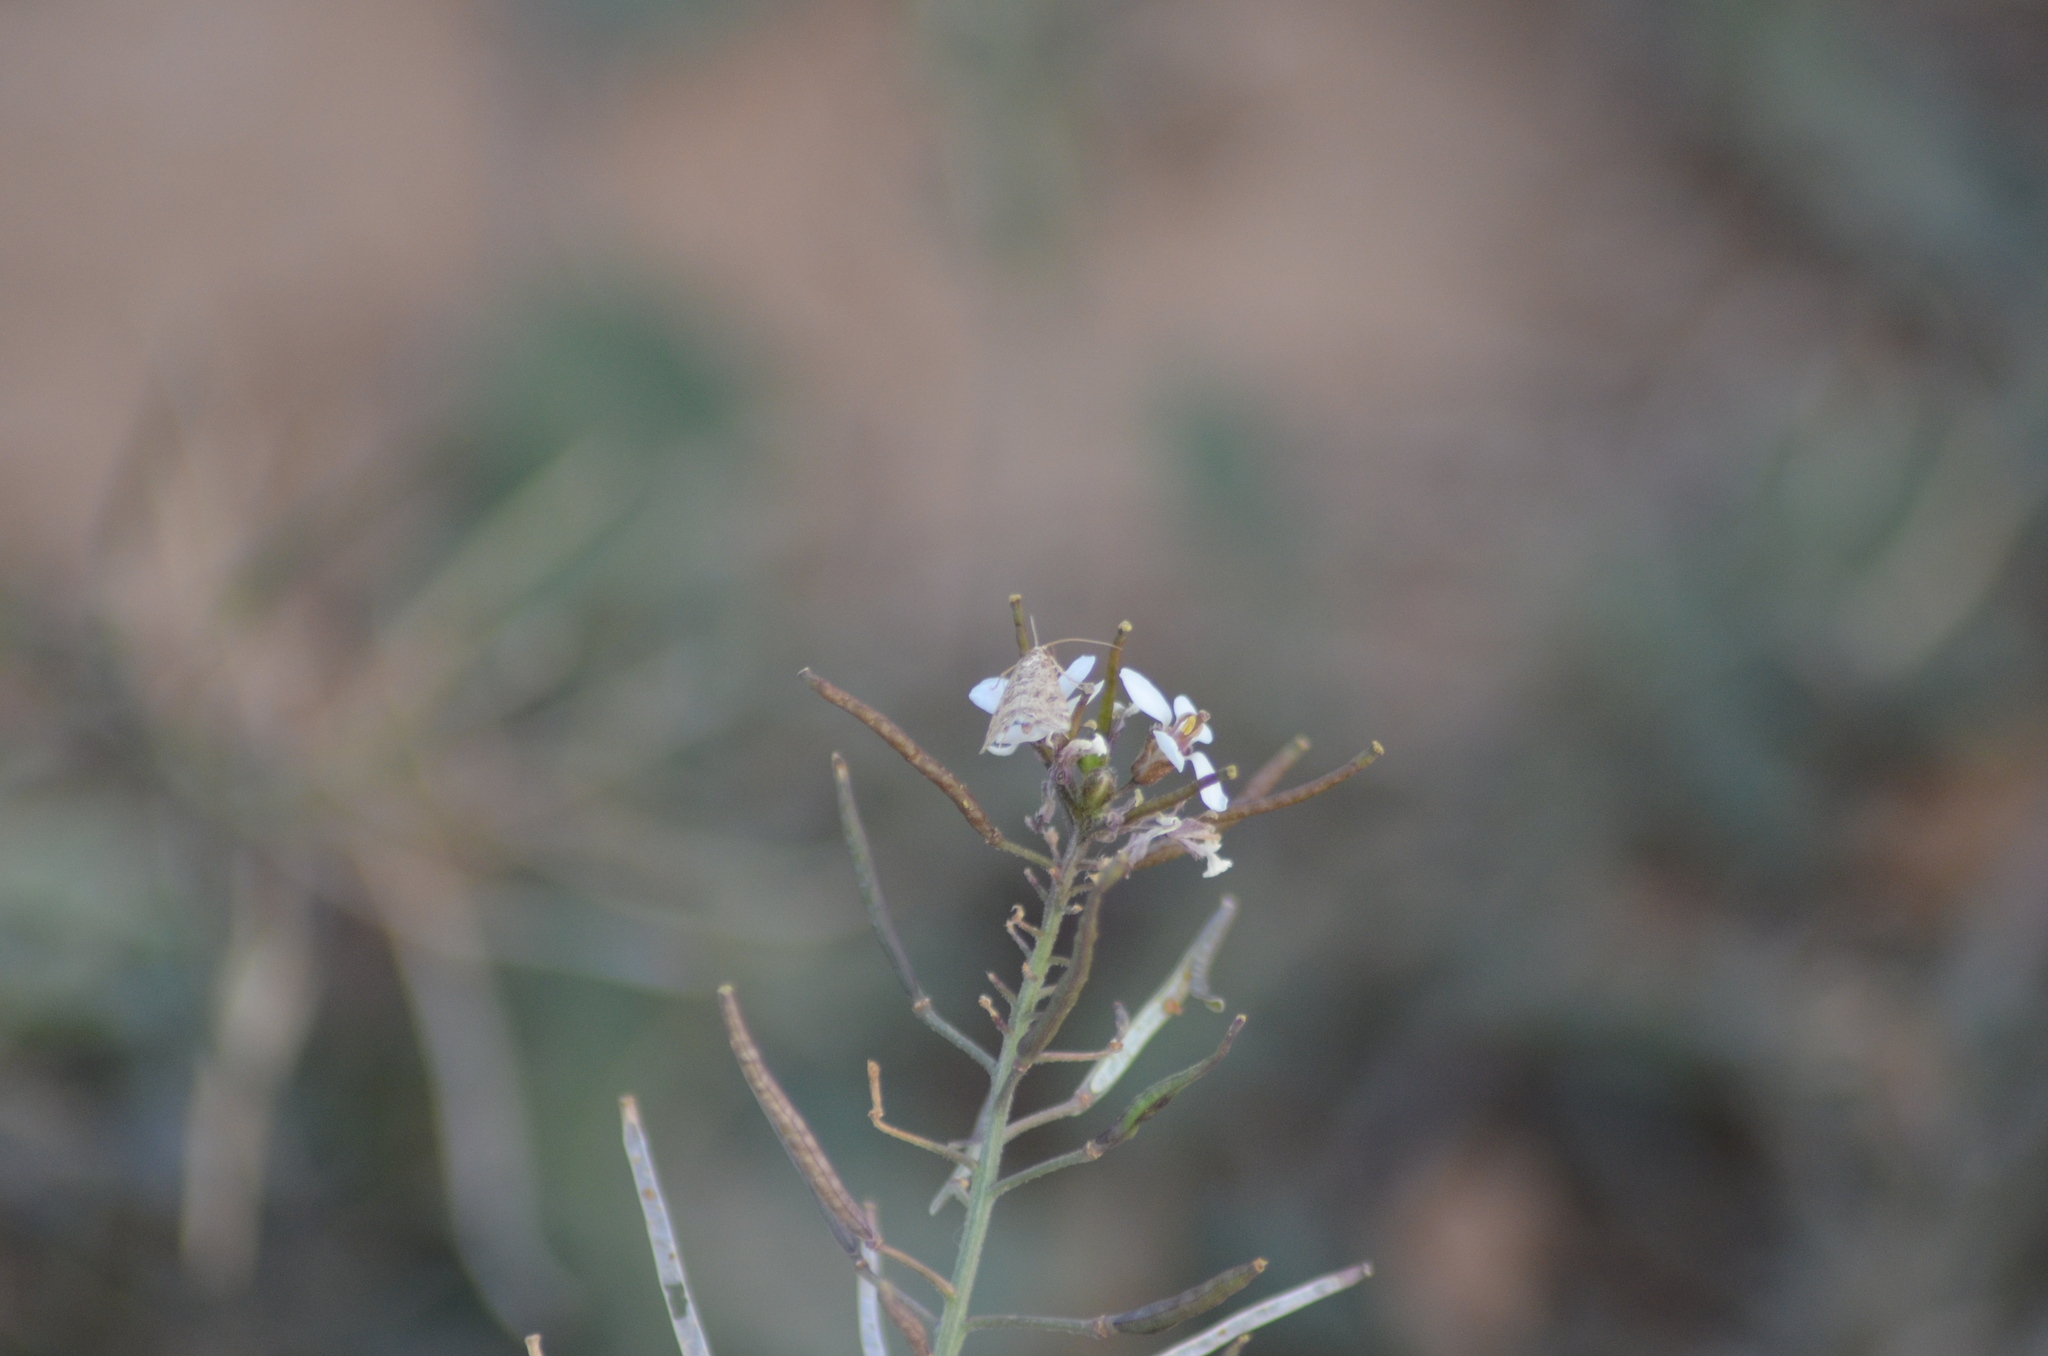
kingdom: Plantae
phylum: Tracheophyta
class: Magnoliopsida
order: Brassicales
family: Brassicaceae
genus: Diplotaxis
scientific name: Diplotaxis erucoides
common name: White rocket
